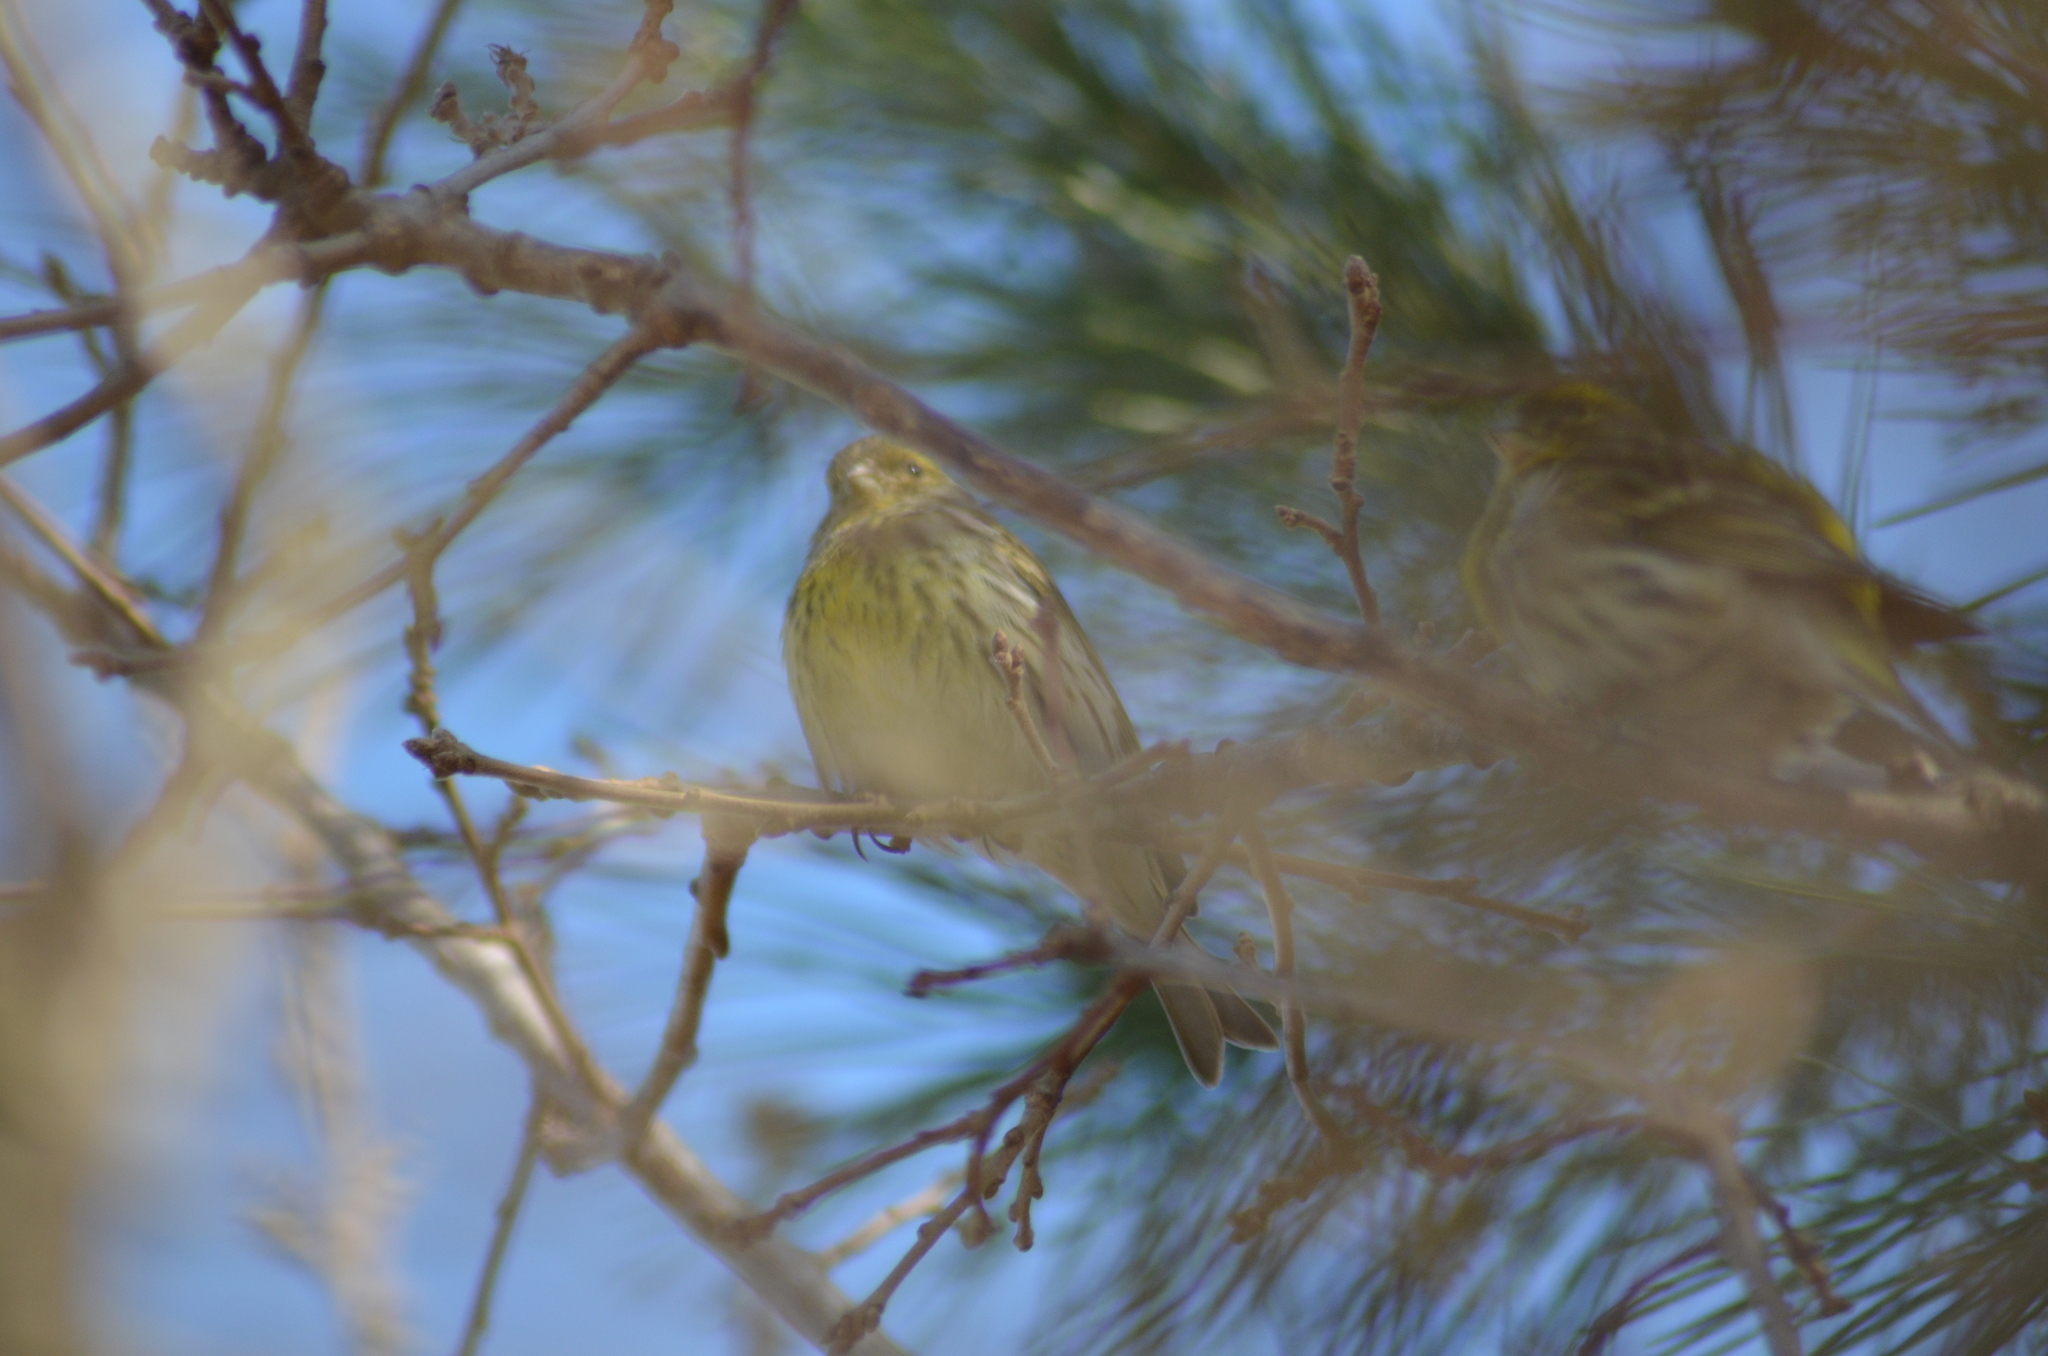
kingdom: Animalia
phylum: Chordata
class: Aves
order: Passeriformes
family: Fringillidae
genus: Serinus
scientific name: Serinus serinus
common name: European serin
